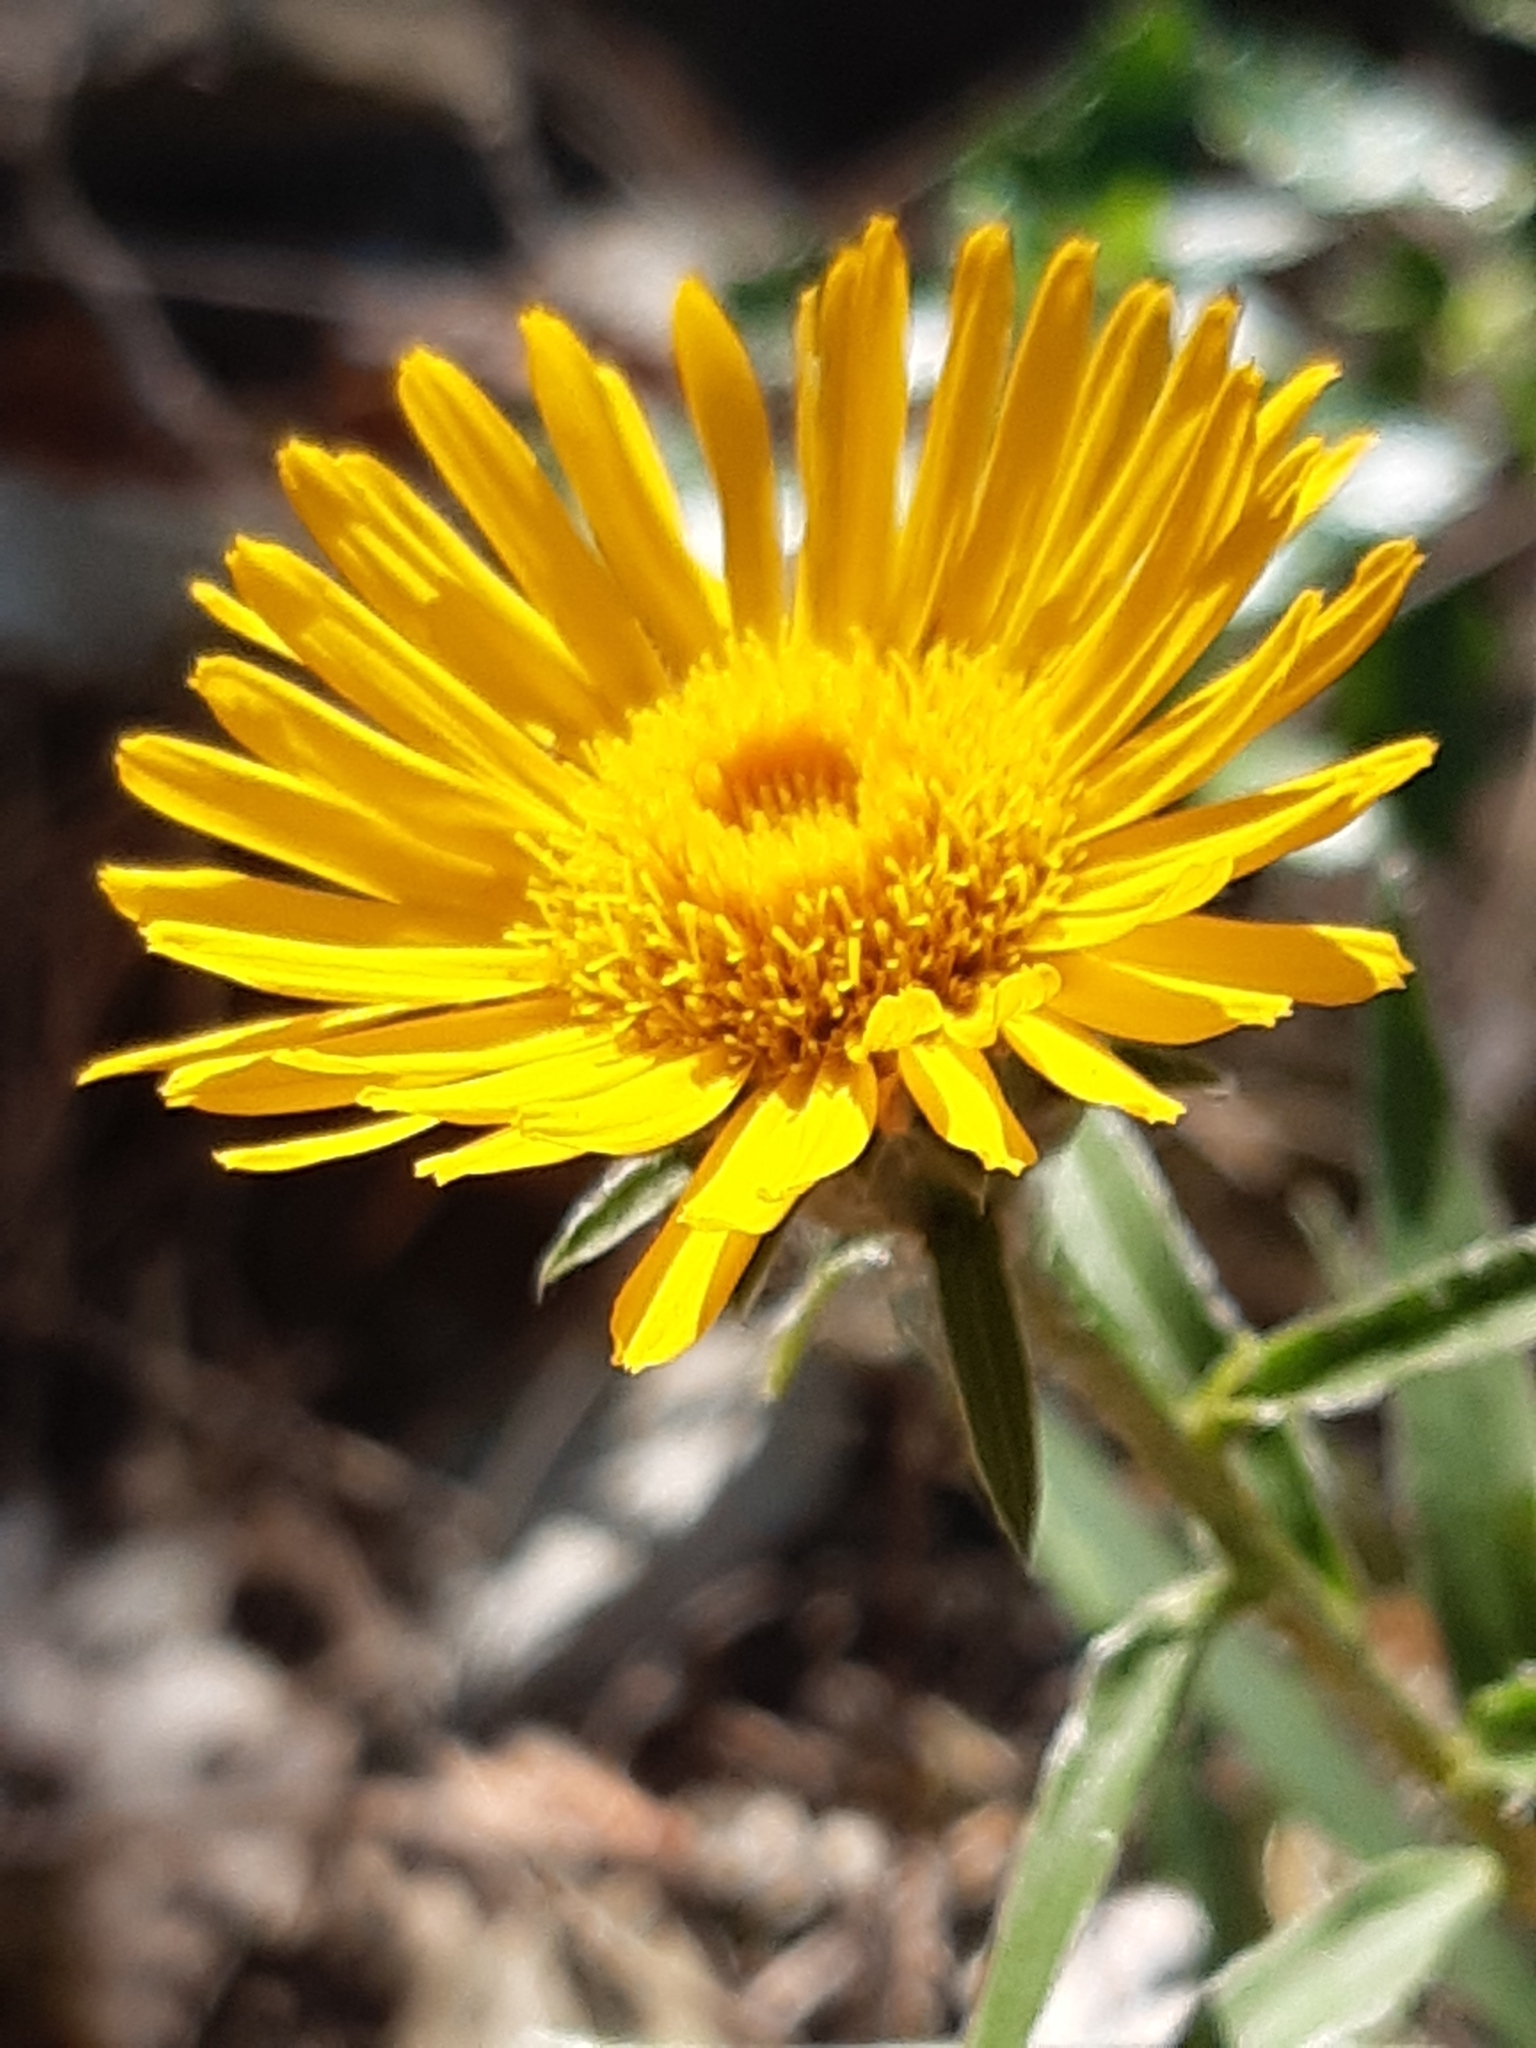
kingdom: Plantae
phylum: Tracheophyta
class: Magnoliopsida
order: Asterales
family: Asteraceae
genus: Pentanema
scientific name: Pentanema ensifolium
